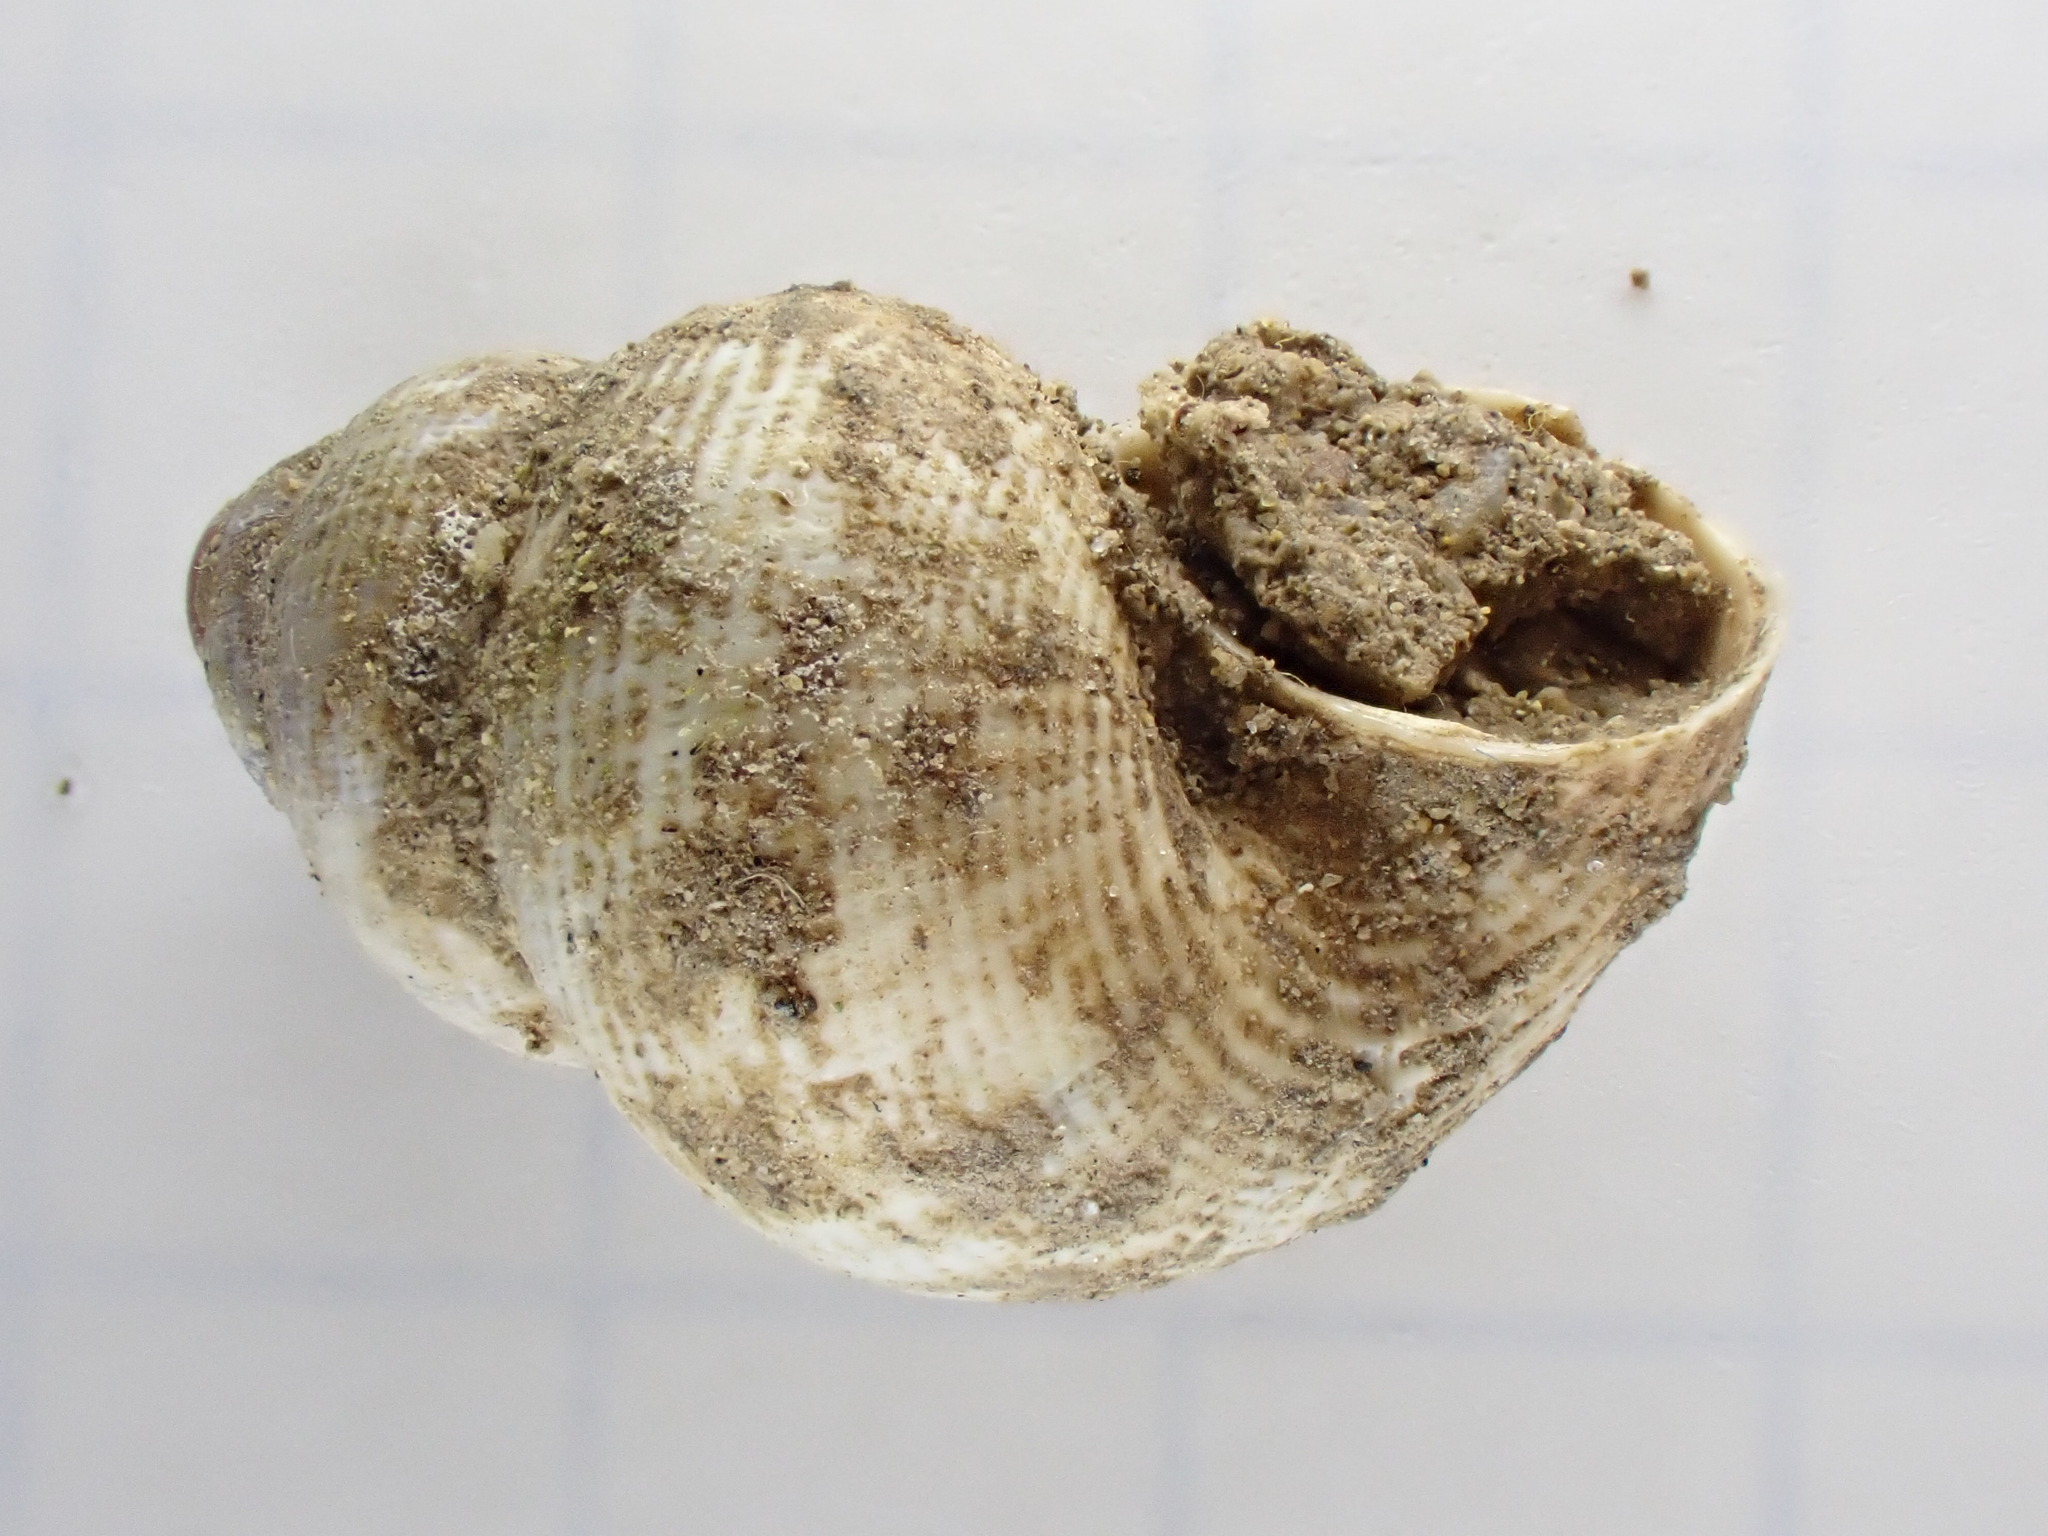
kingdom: Animalia
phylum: Mollusca
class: Gastropoda
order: Littorinimorpha
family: Pomatiidae
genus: Pomatias
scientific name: Pomatias elegans
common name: Red-mouthed snail
